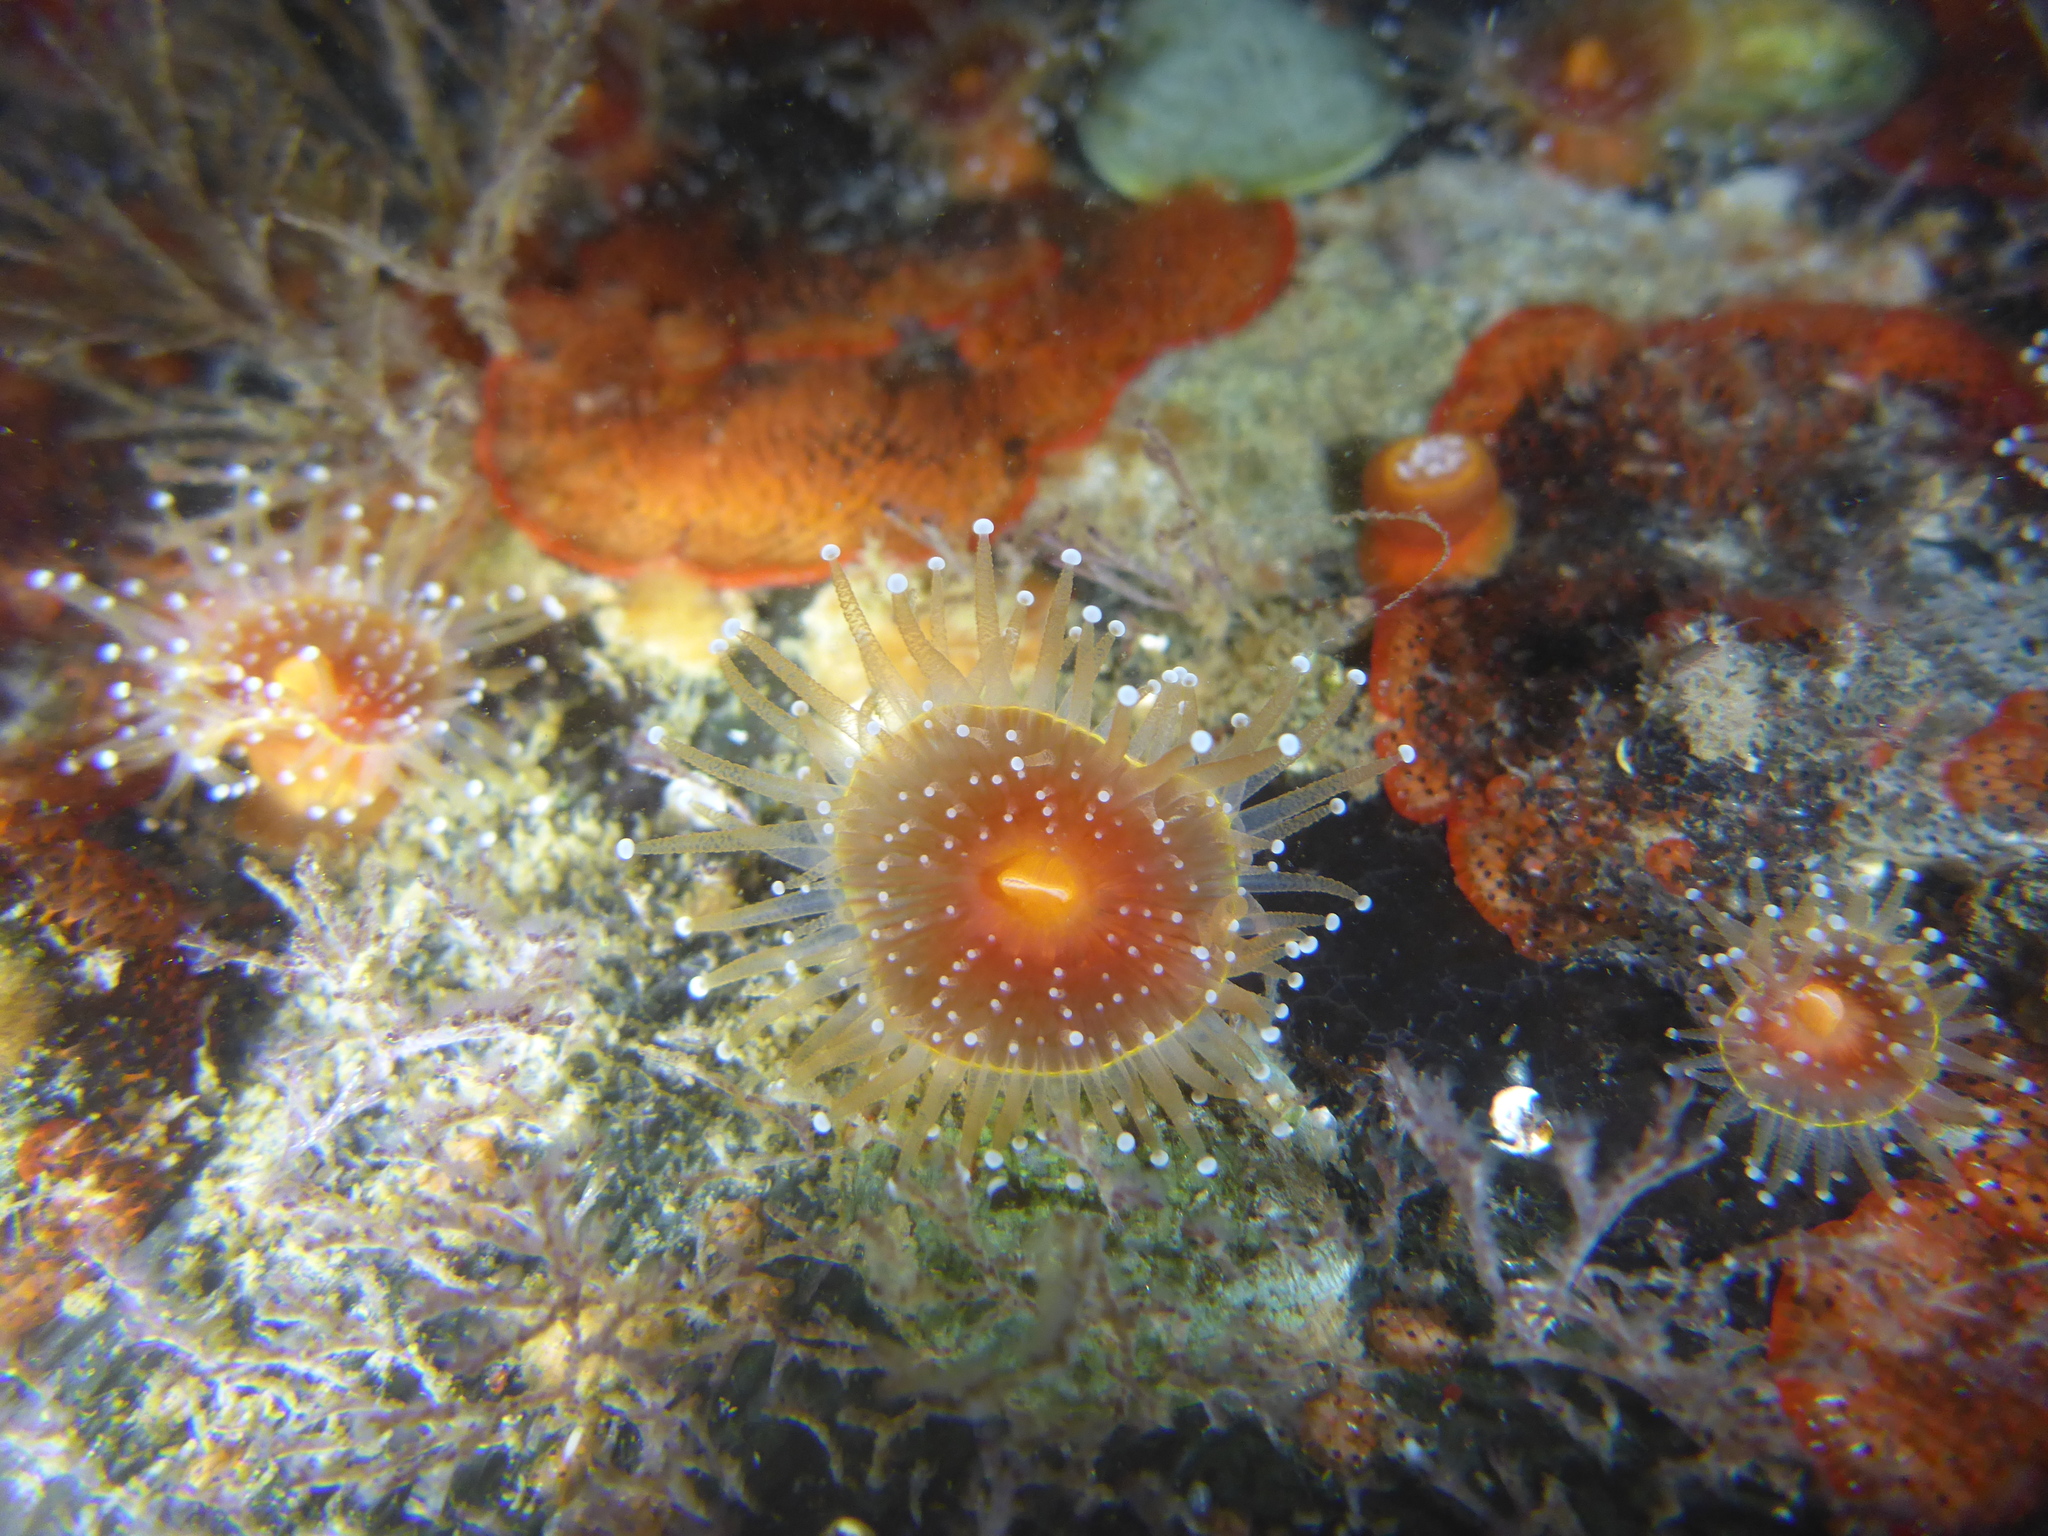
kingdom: Animalia
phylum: Cnidaria
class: Anthozoa
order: Corallimorpharia
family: Corallimorphidae
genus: Corynactis
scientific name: Corynactis californica
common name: Strawberry corallimorpharian
